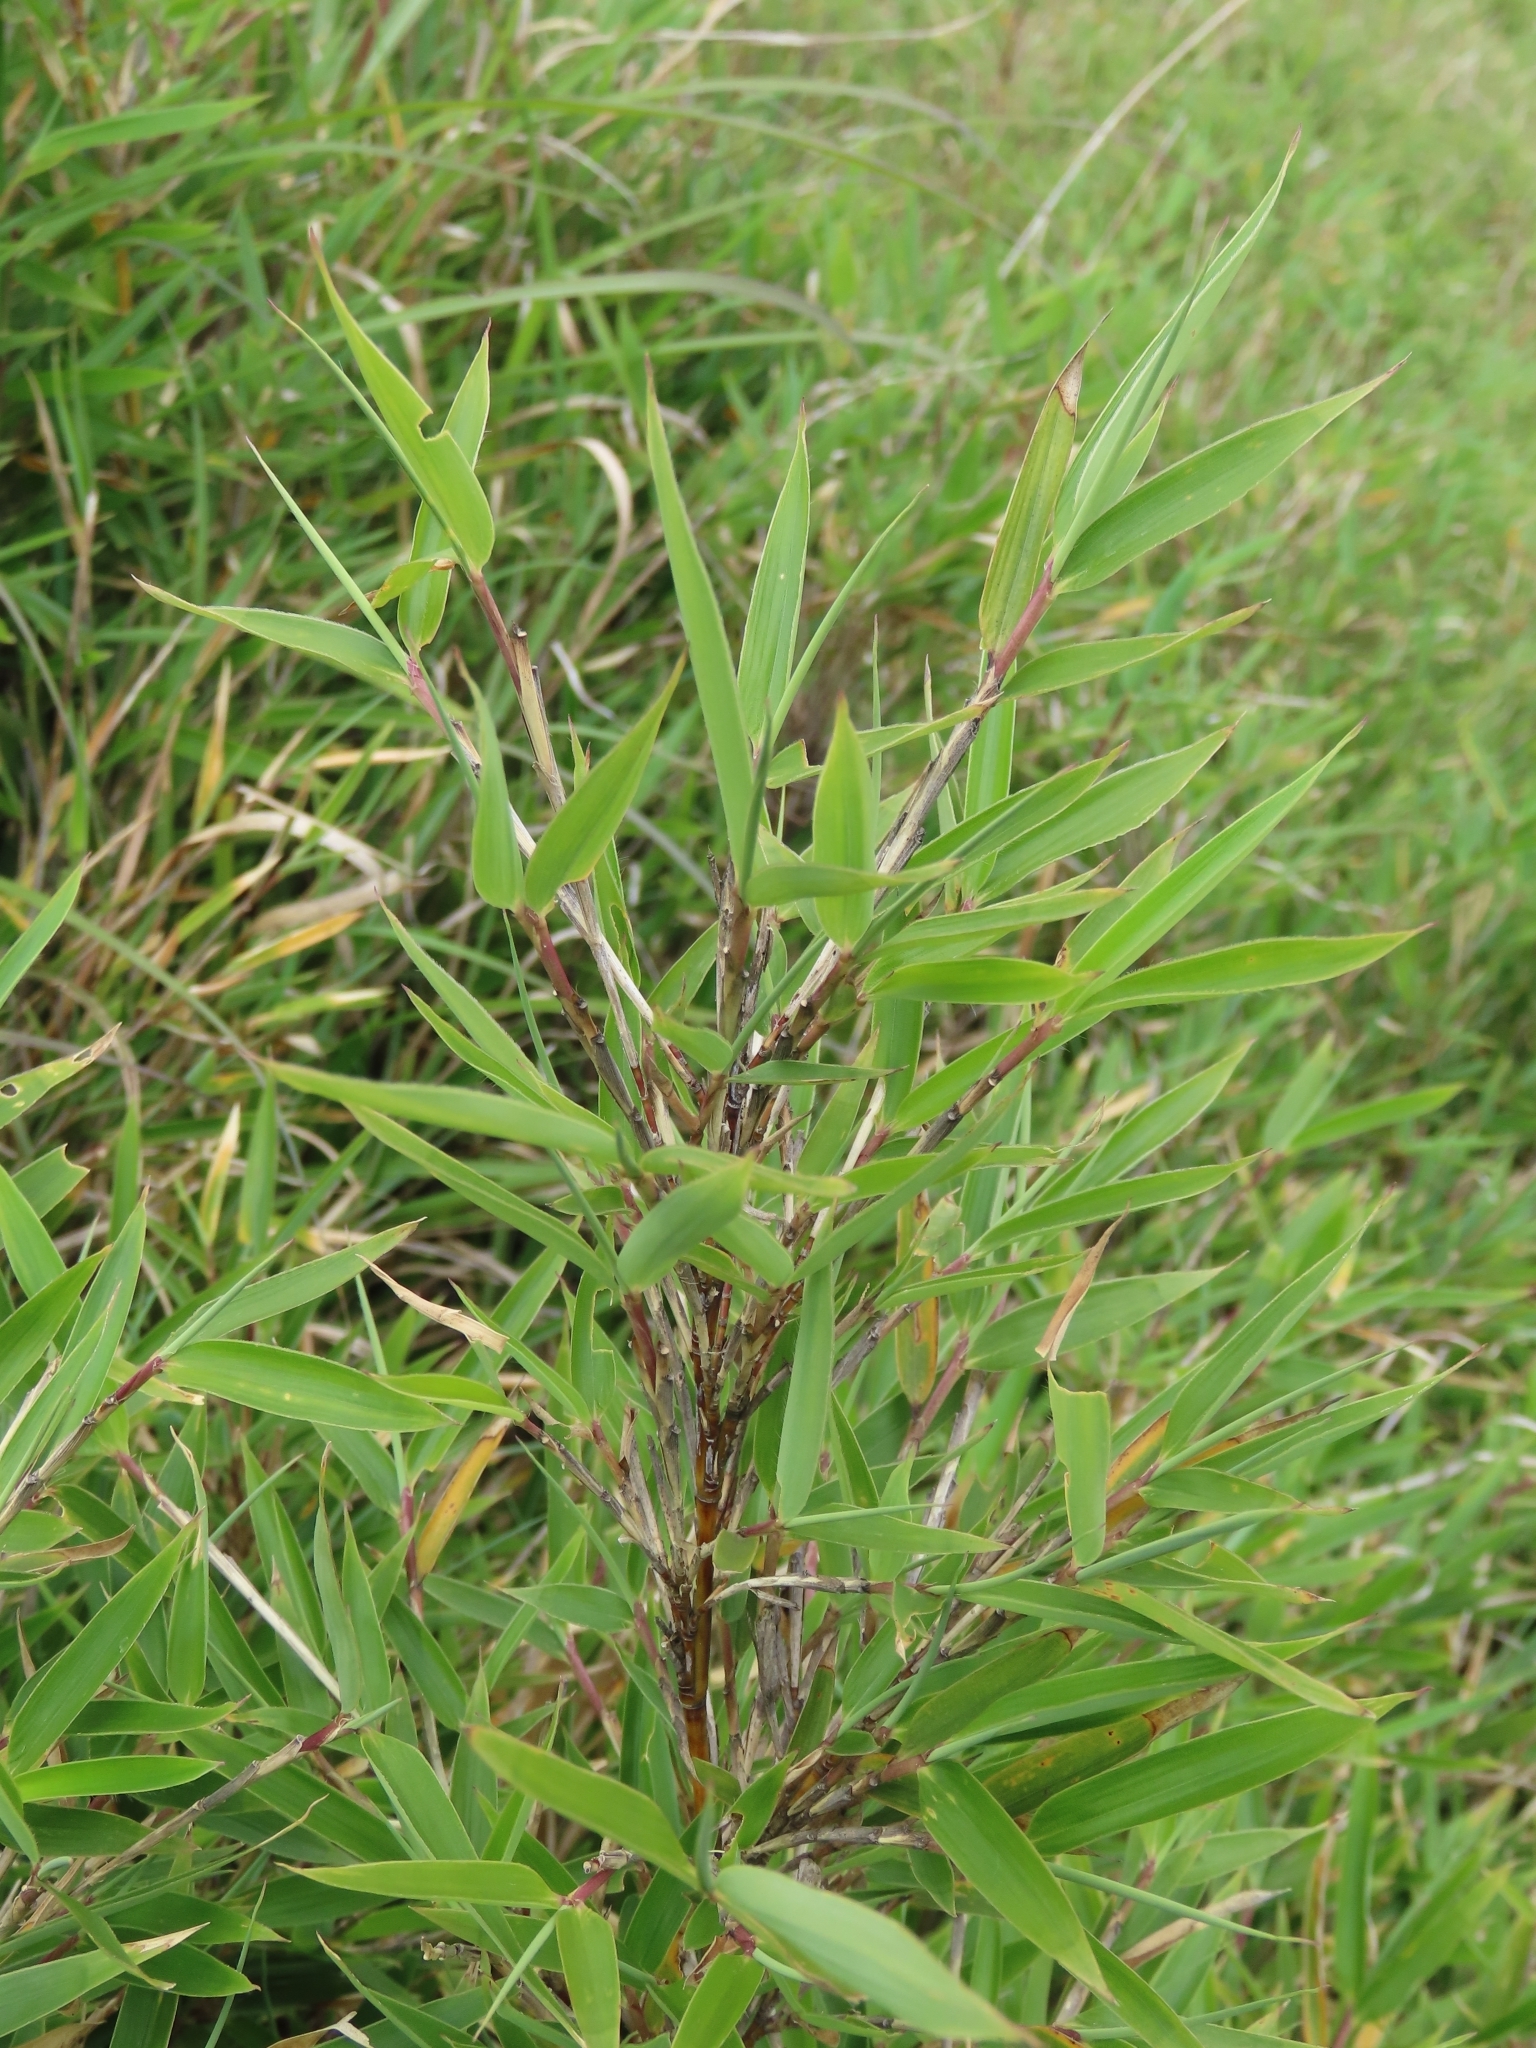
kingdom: Plantae
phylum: Tracheophyta
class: Liliopsida
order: Poales
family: Poaceae
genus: Yushania
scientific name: Yushania niitakayamensis
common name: Yushan cane
